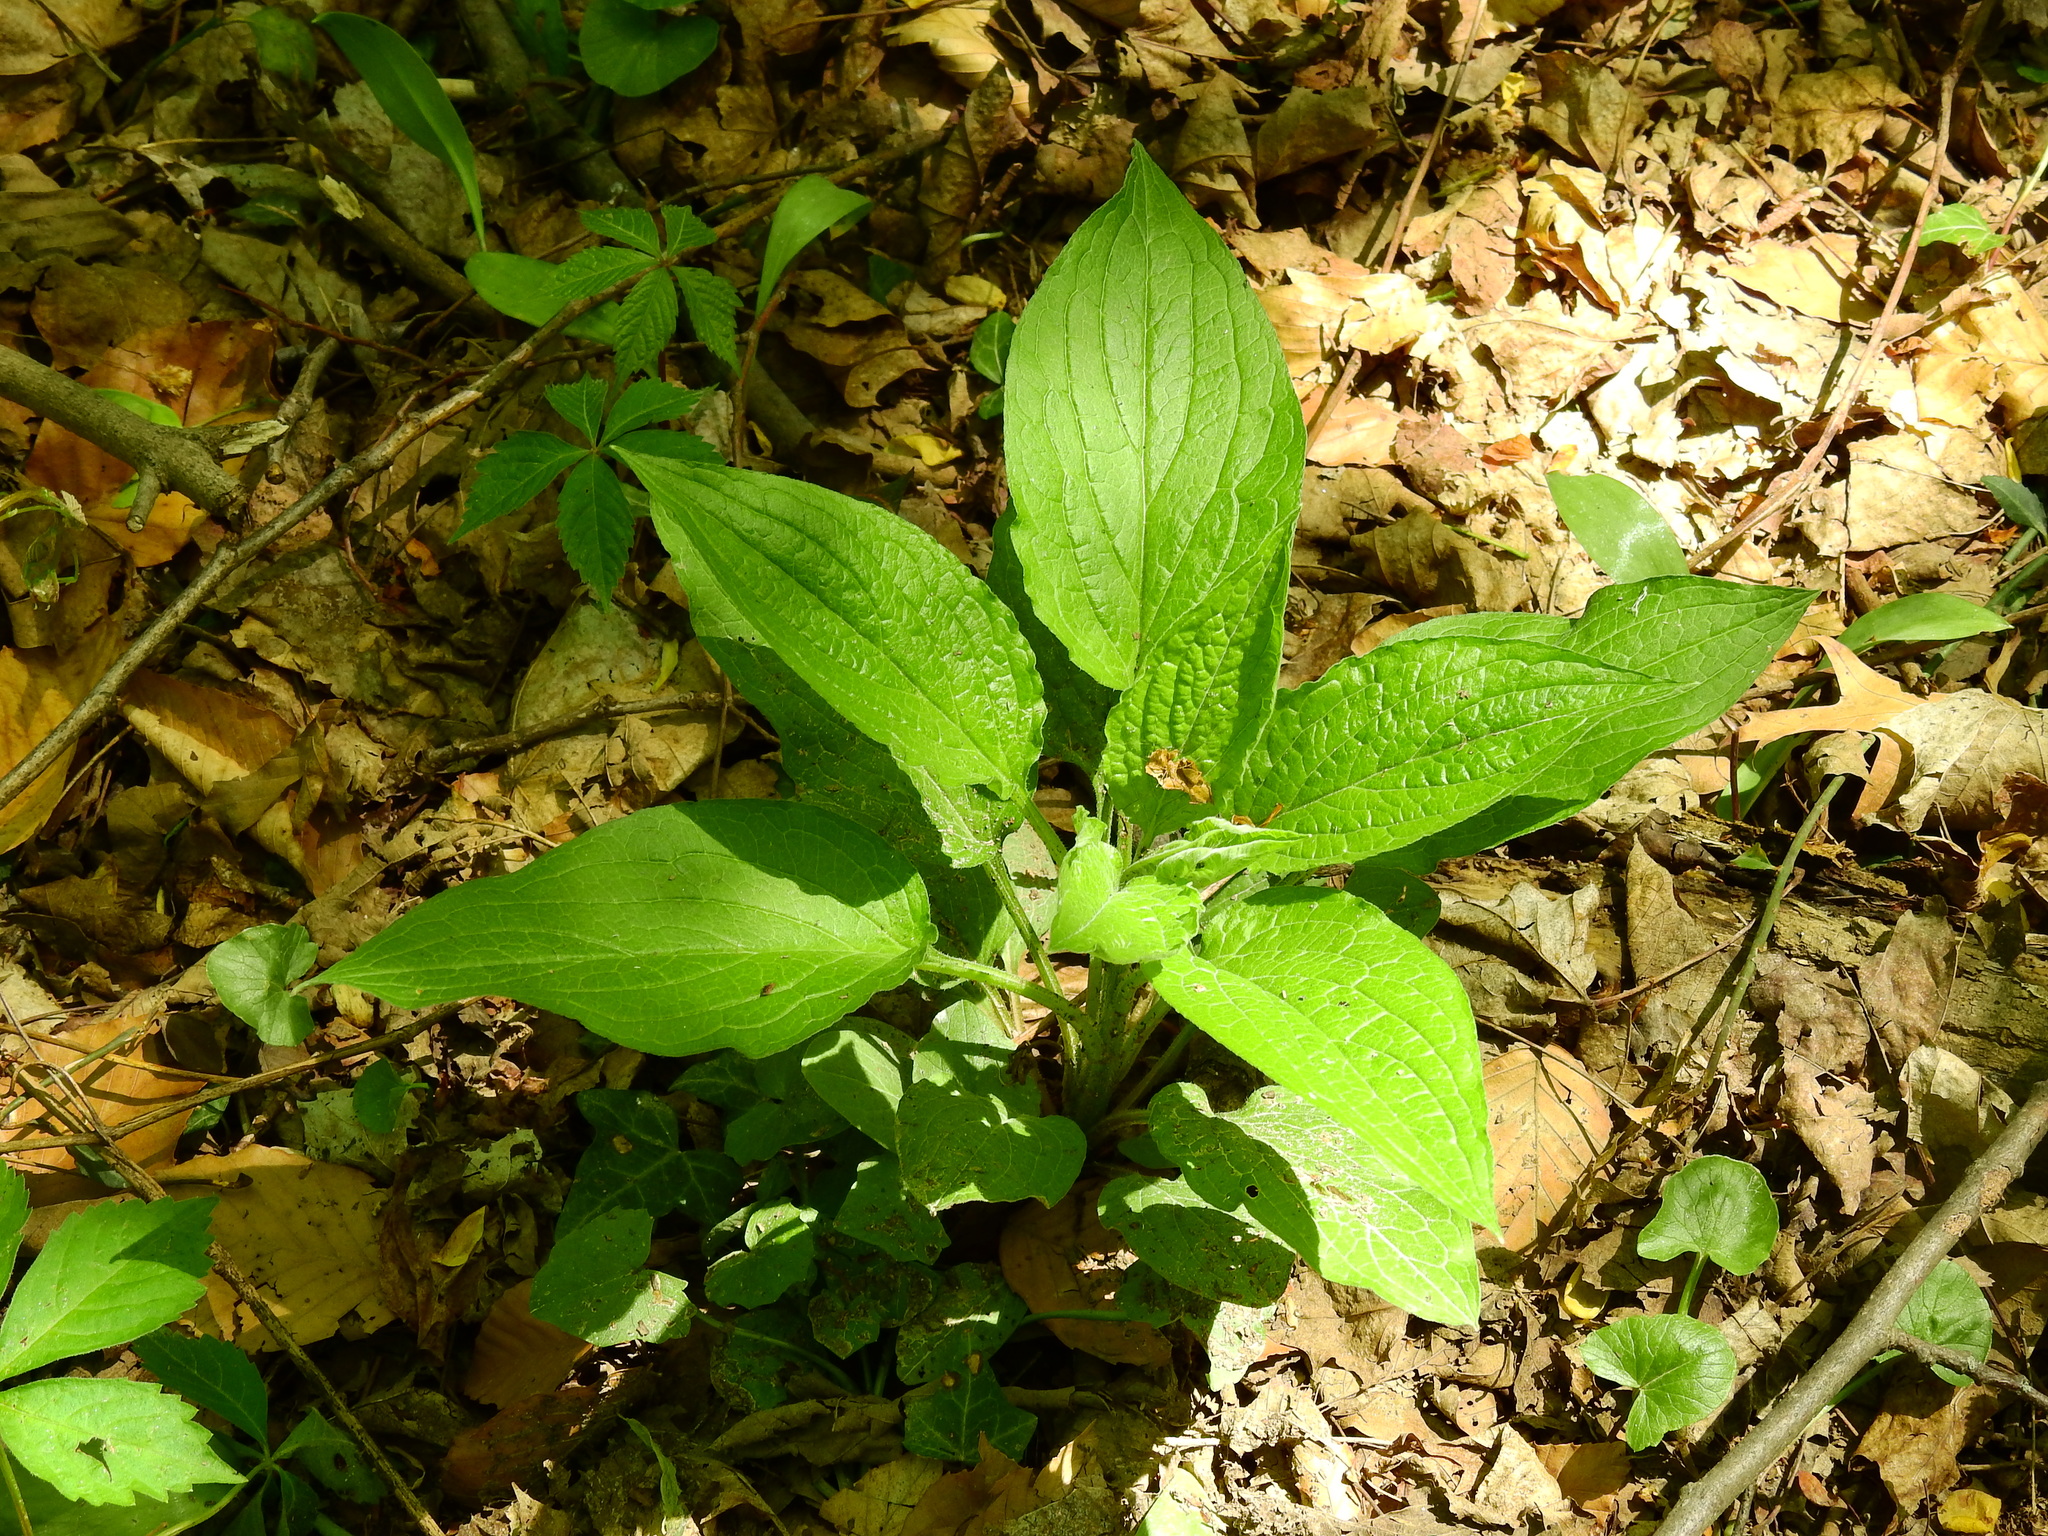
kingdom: Plantae
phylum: Tracheophyta
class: Magnoliopsida
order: Boraginales
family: Boraginaceae
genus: Hackelia
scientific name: Hackelia virginiana
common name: Beggar's-lice
